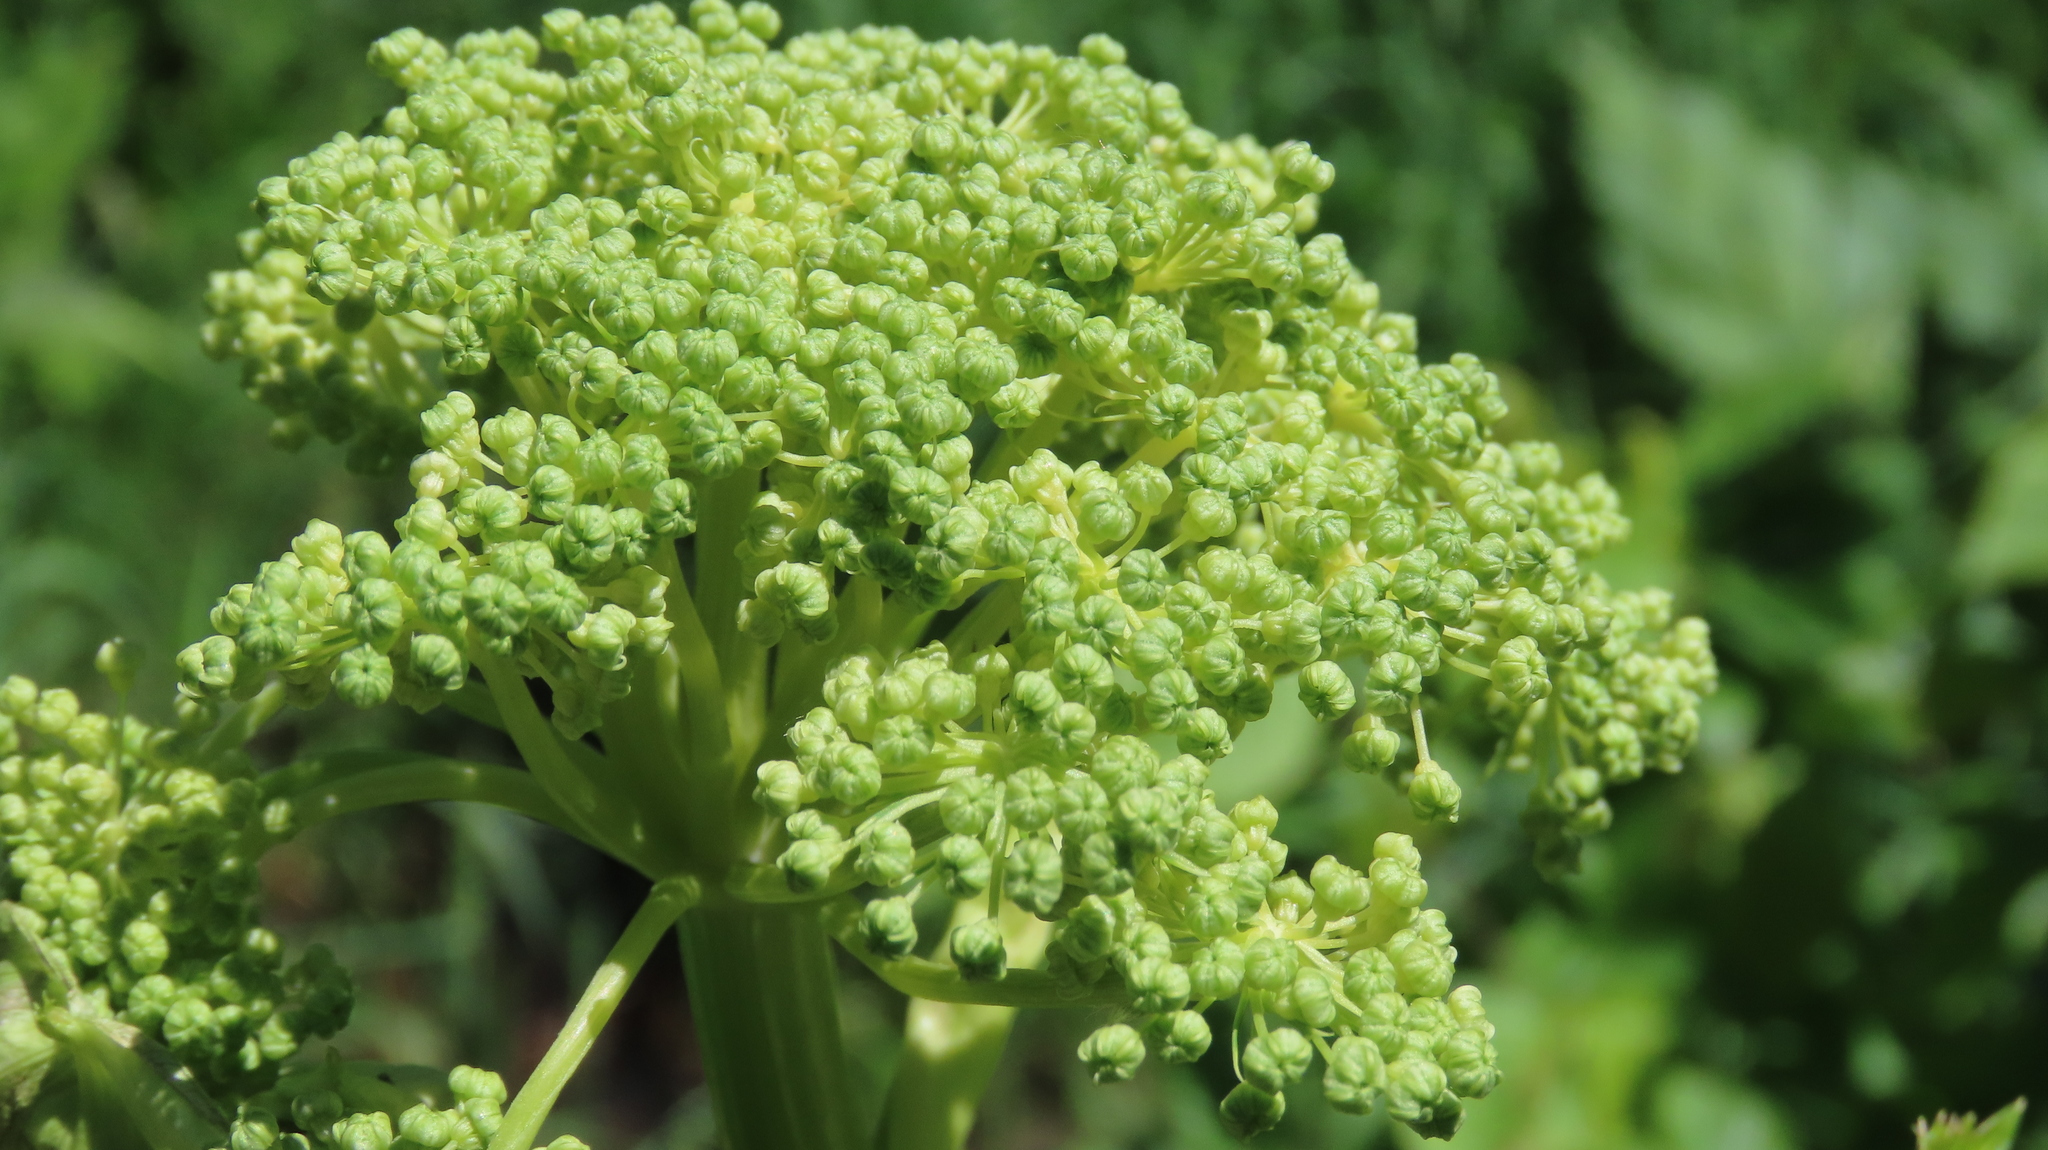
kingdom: Plantae
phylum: Tracheophyta
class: Magnoliopsida
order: Apiales
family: Apiaceae
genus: Angelica
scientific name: Angelica atropurpurea
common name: Great angelica
